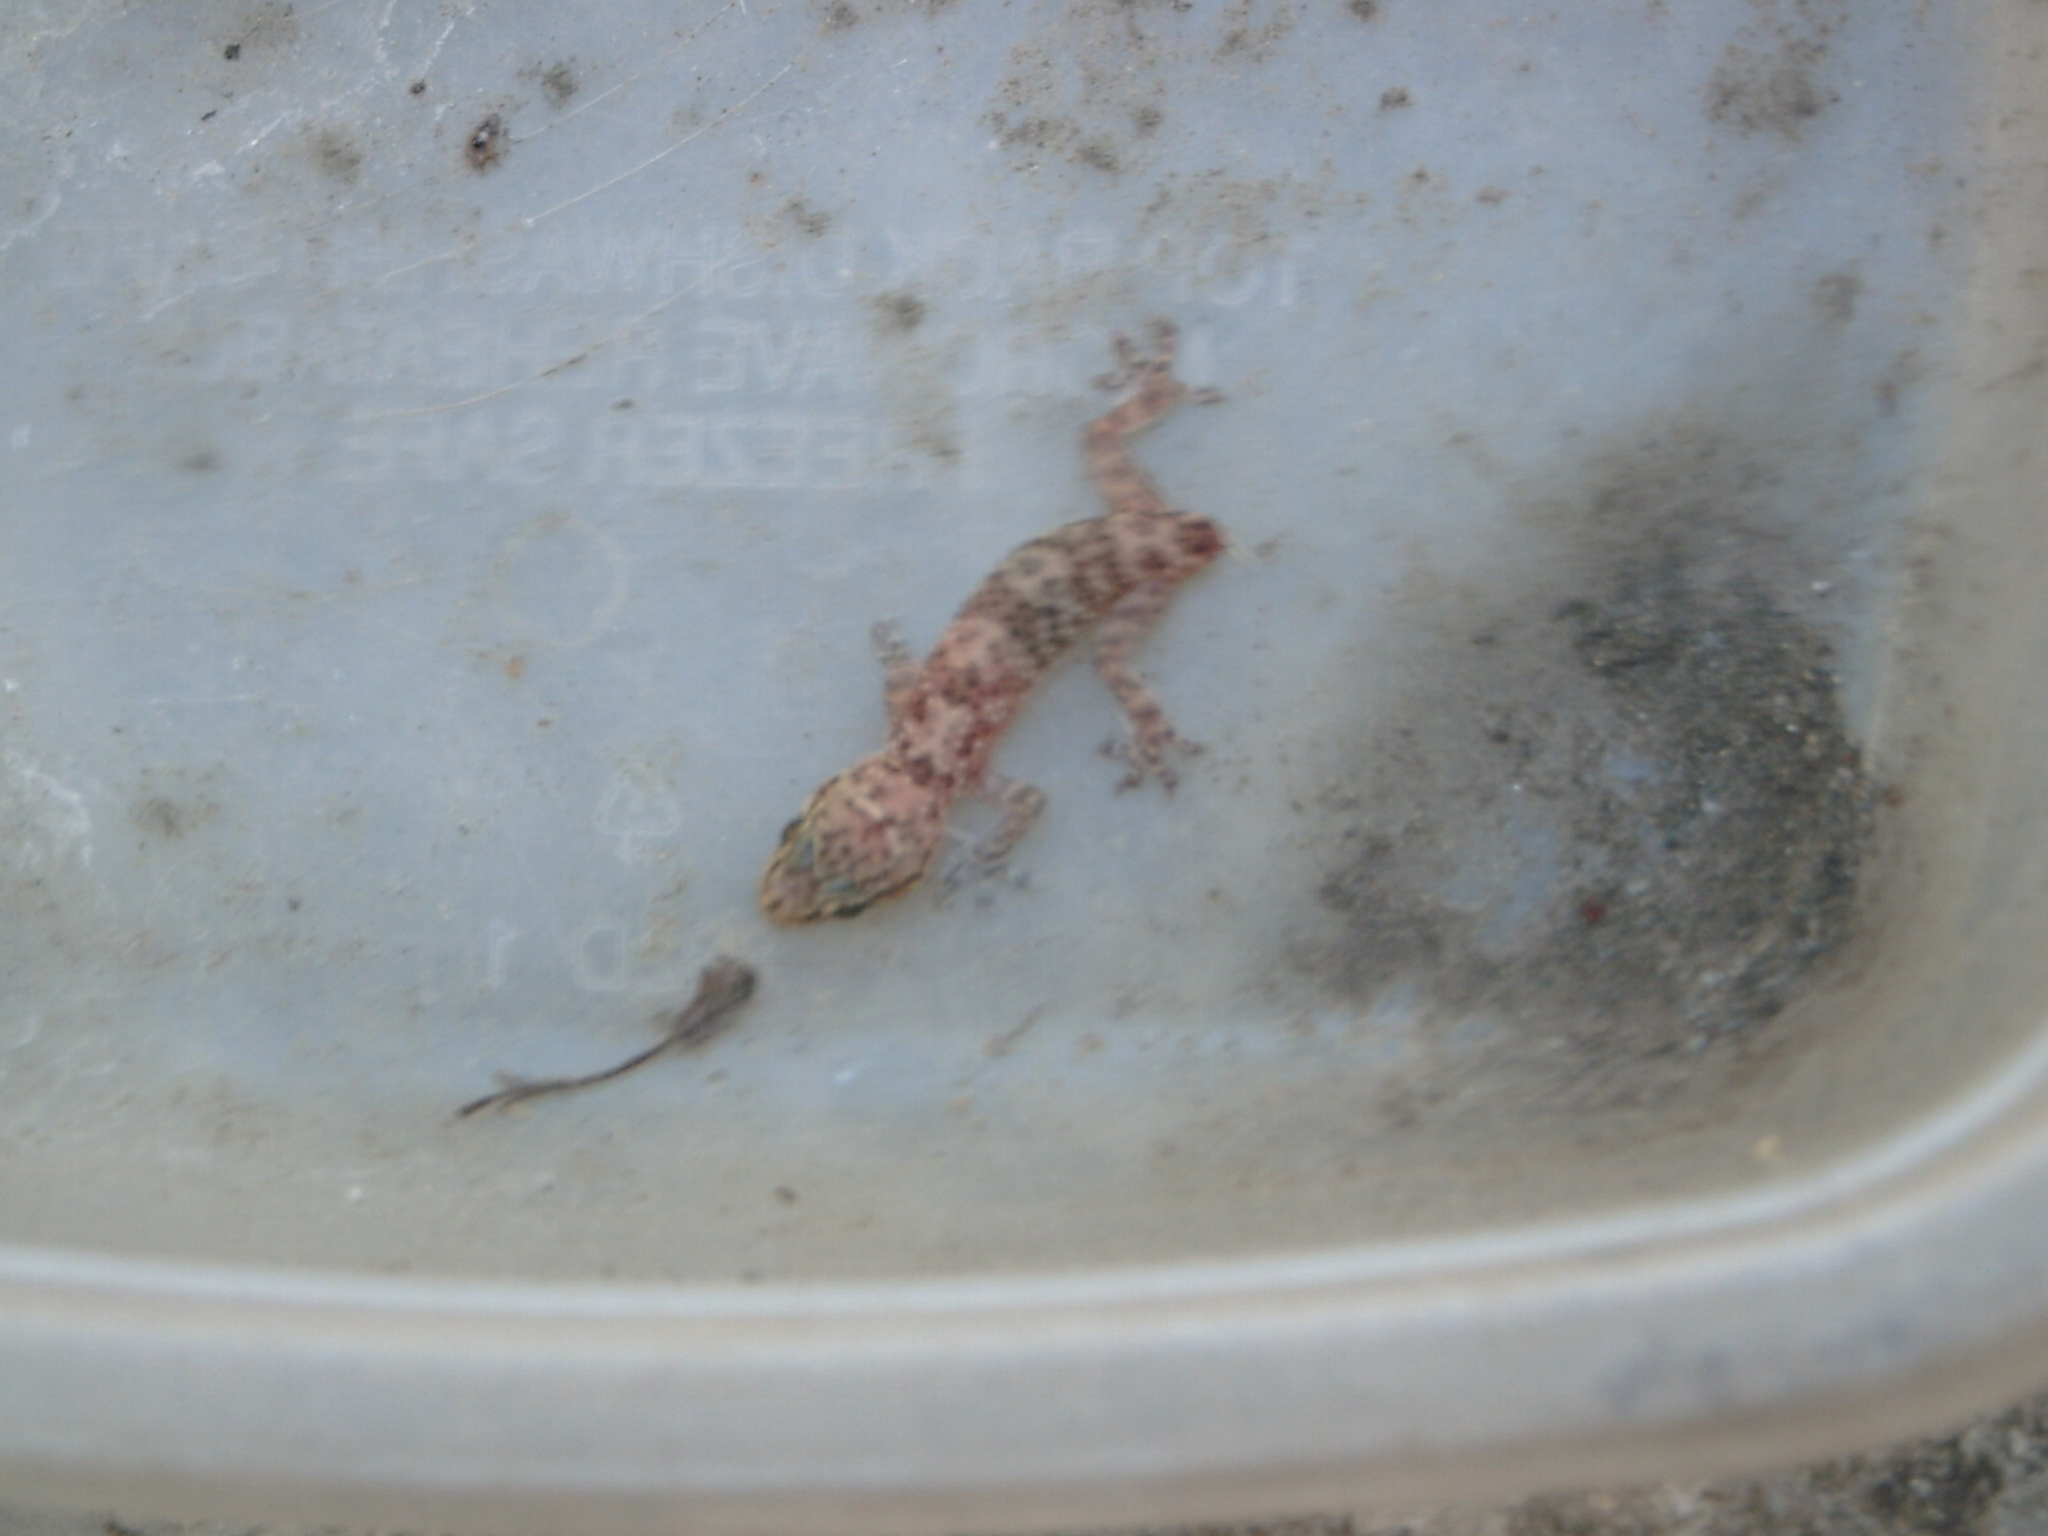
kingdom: Animalia
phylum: Chordata
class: Squamata
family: Gekkonidae
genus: Hemidactylus
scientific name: Hemidactylus turcicus
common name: Turkish gecko
